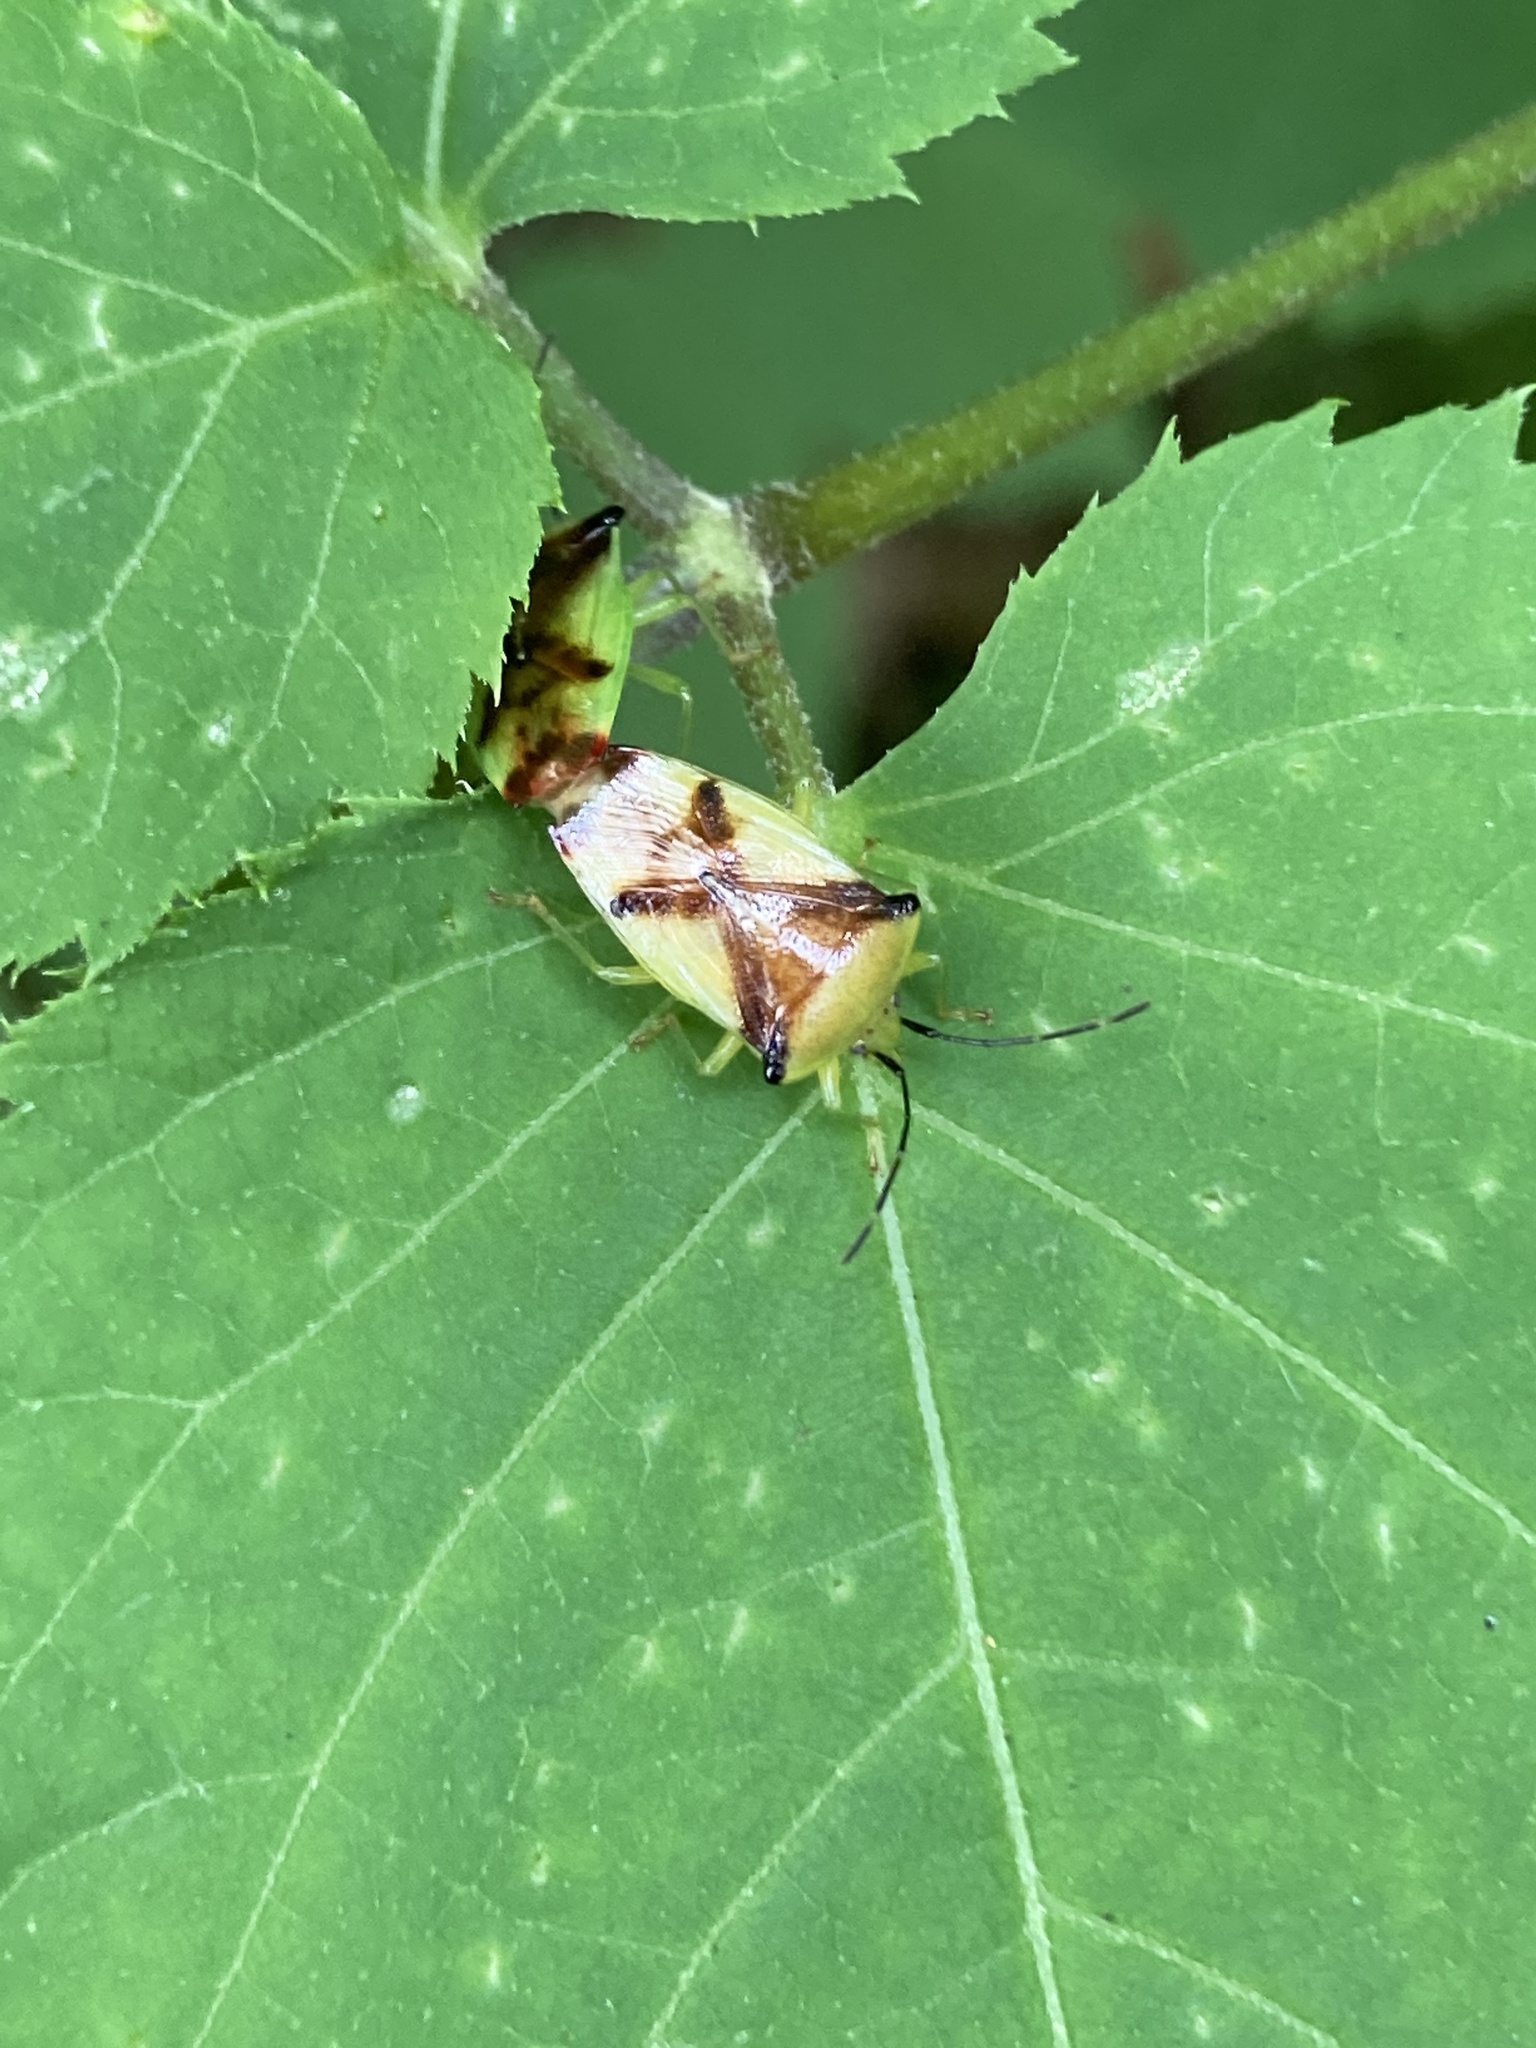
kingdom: Animalia
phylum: Arthropoda
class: Insecta
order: Hemiptera
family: Acanthosomatidae
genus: Elasmostethus
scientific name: Elasmostethus atricornis
